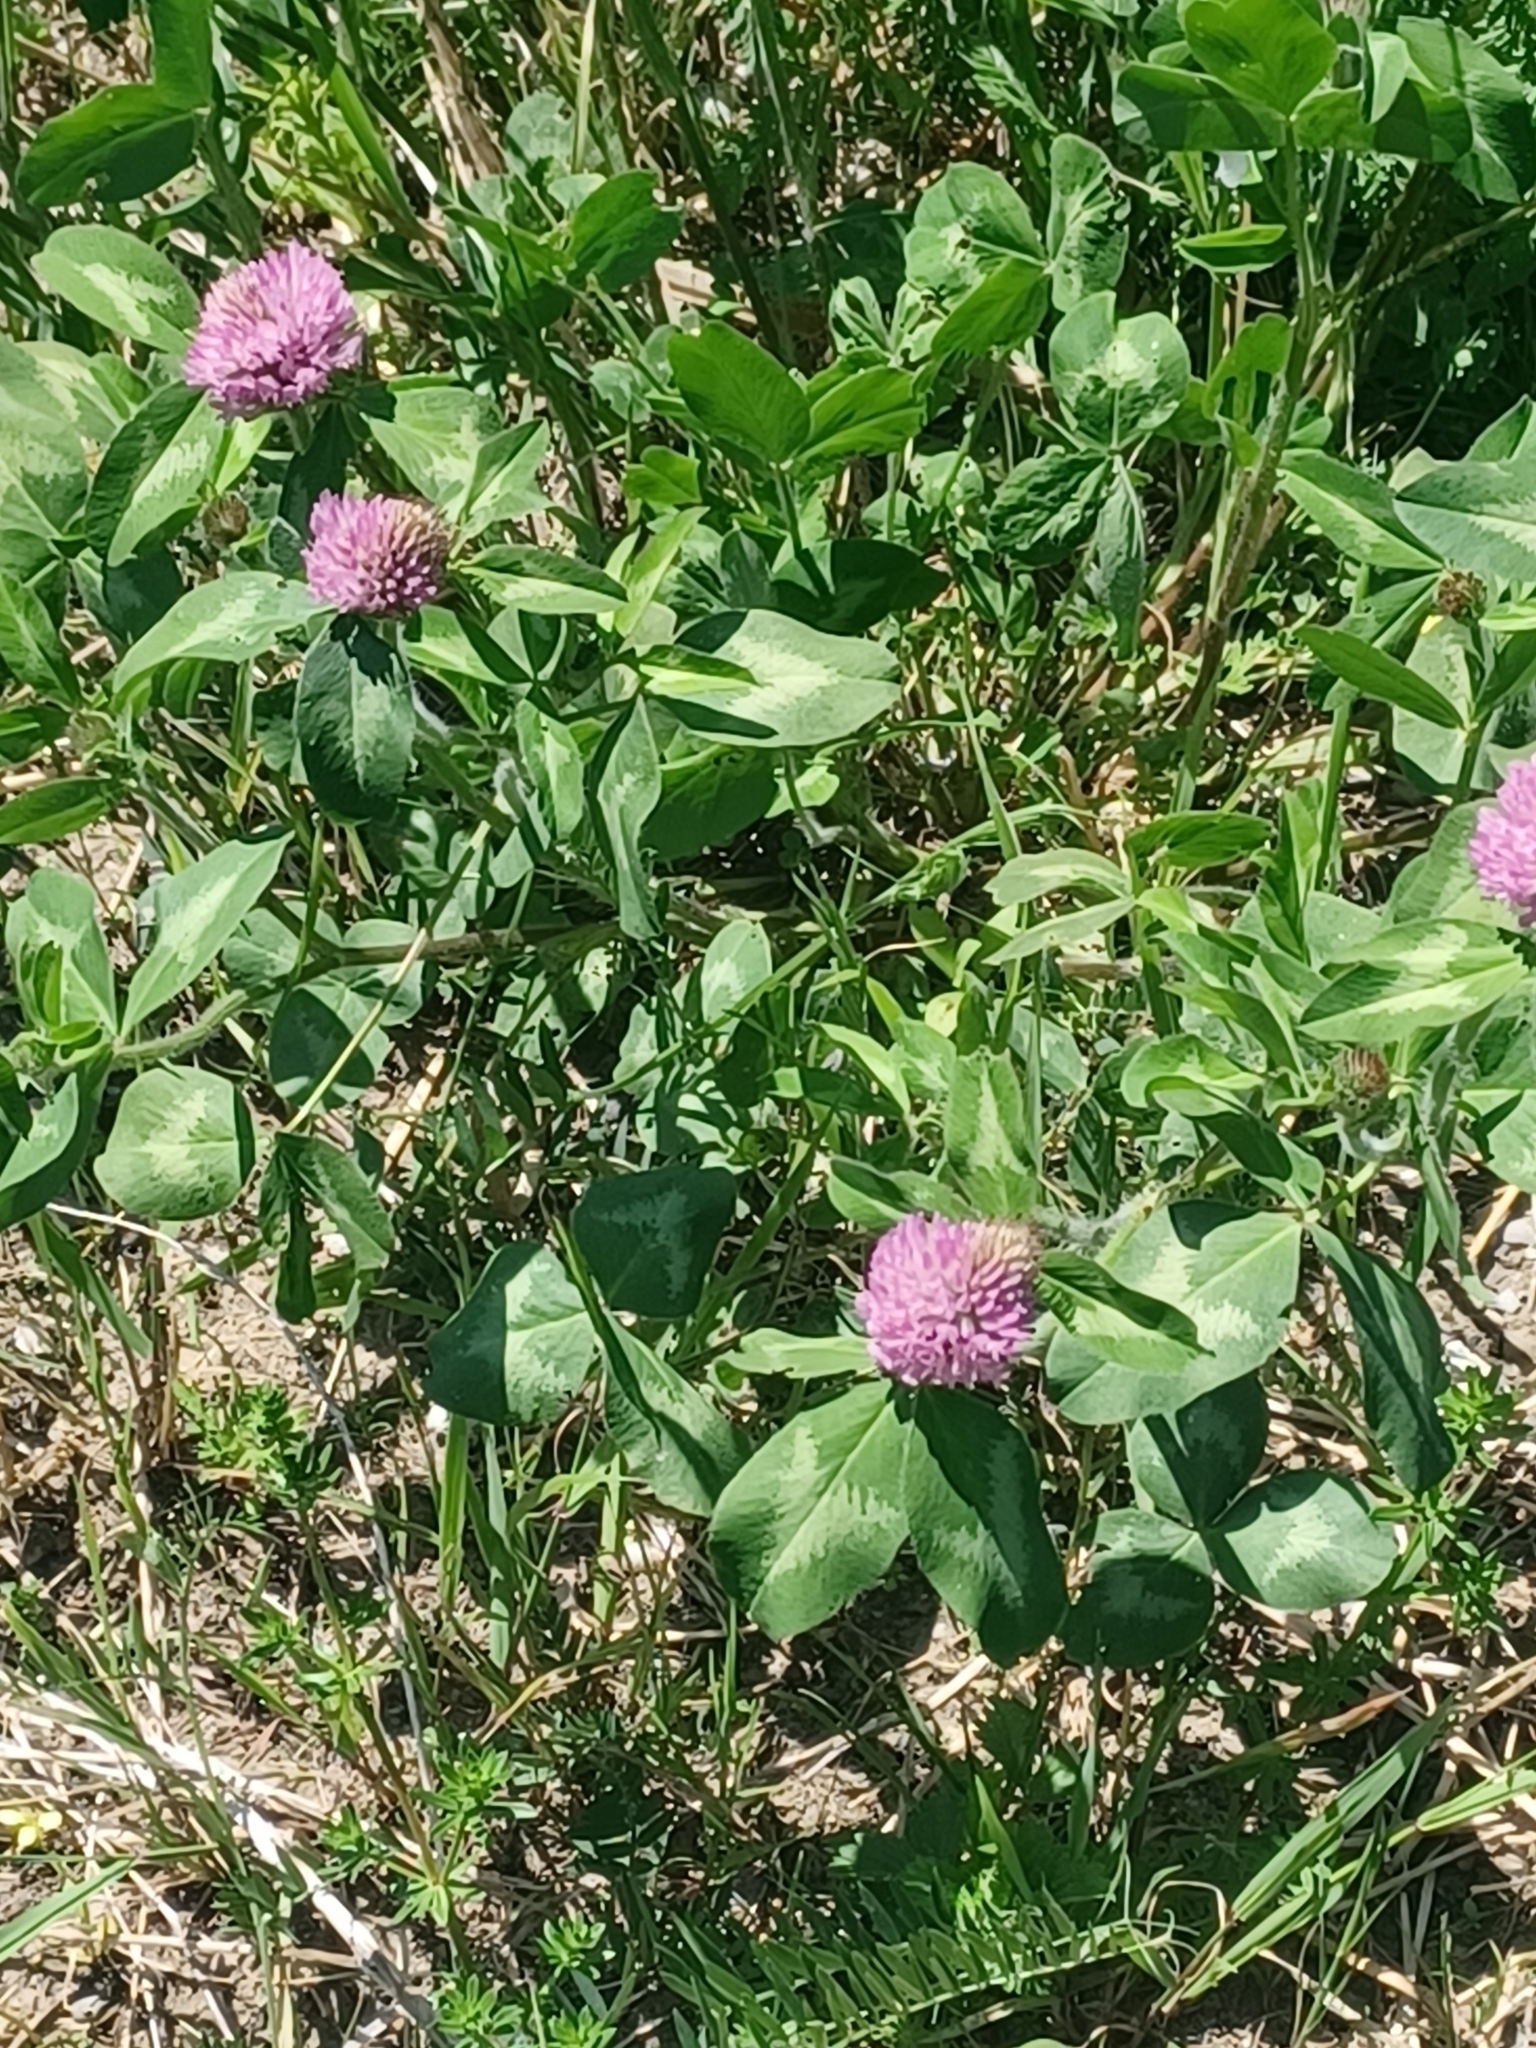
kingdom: Plantae
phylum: Tracheophyta
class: Magnoliopsida
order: Fabales
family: Fabaceae
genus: Trifolium
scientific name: Trifolium pratense
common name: Red clover
